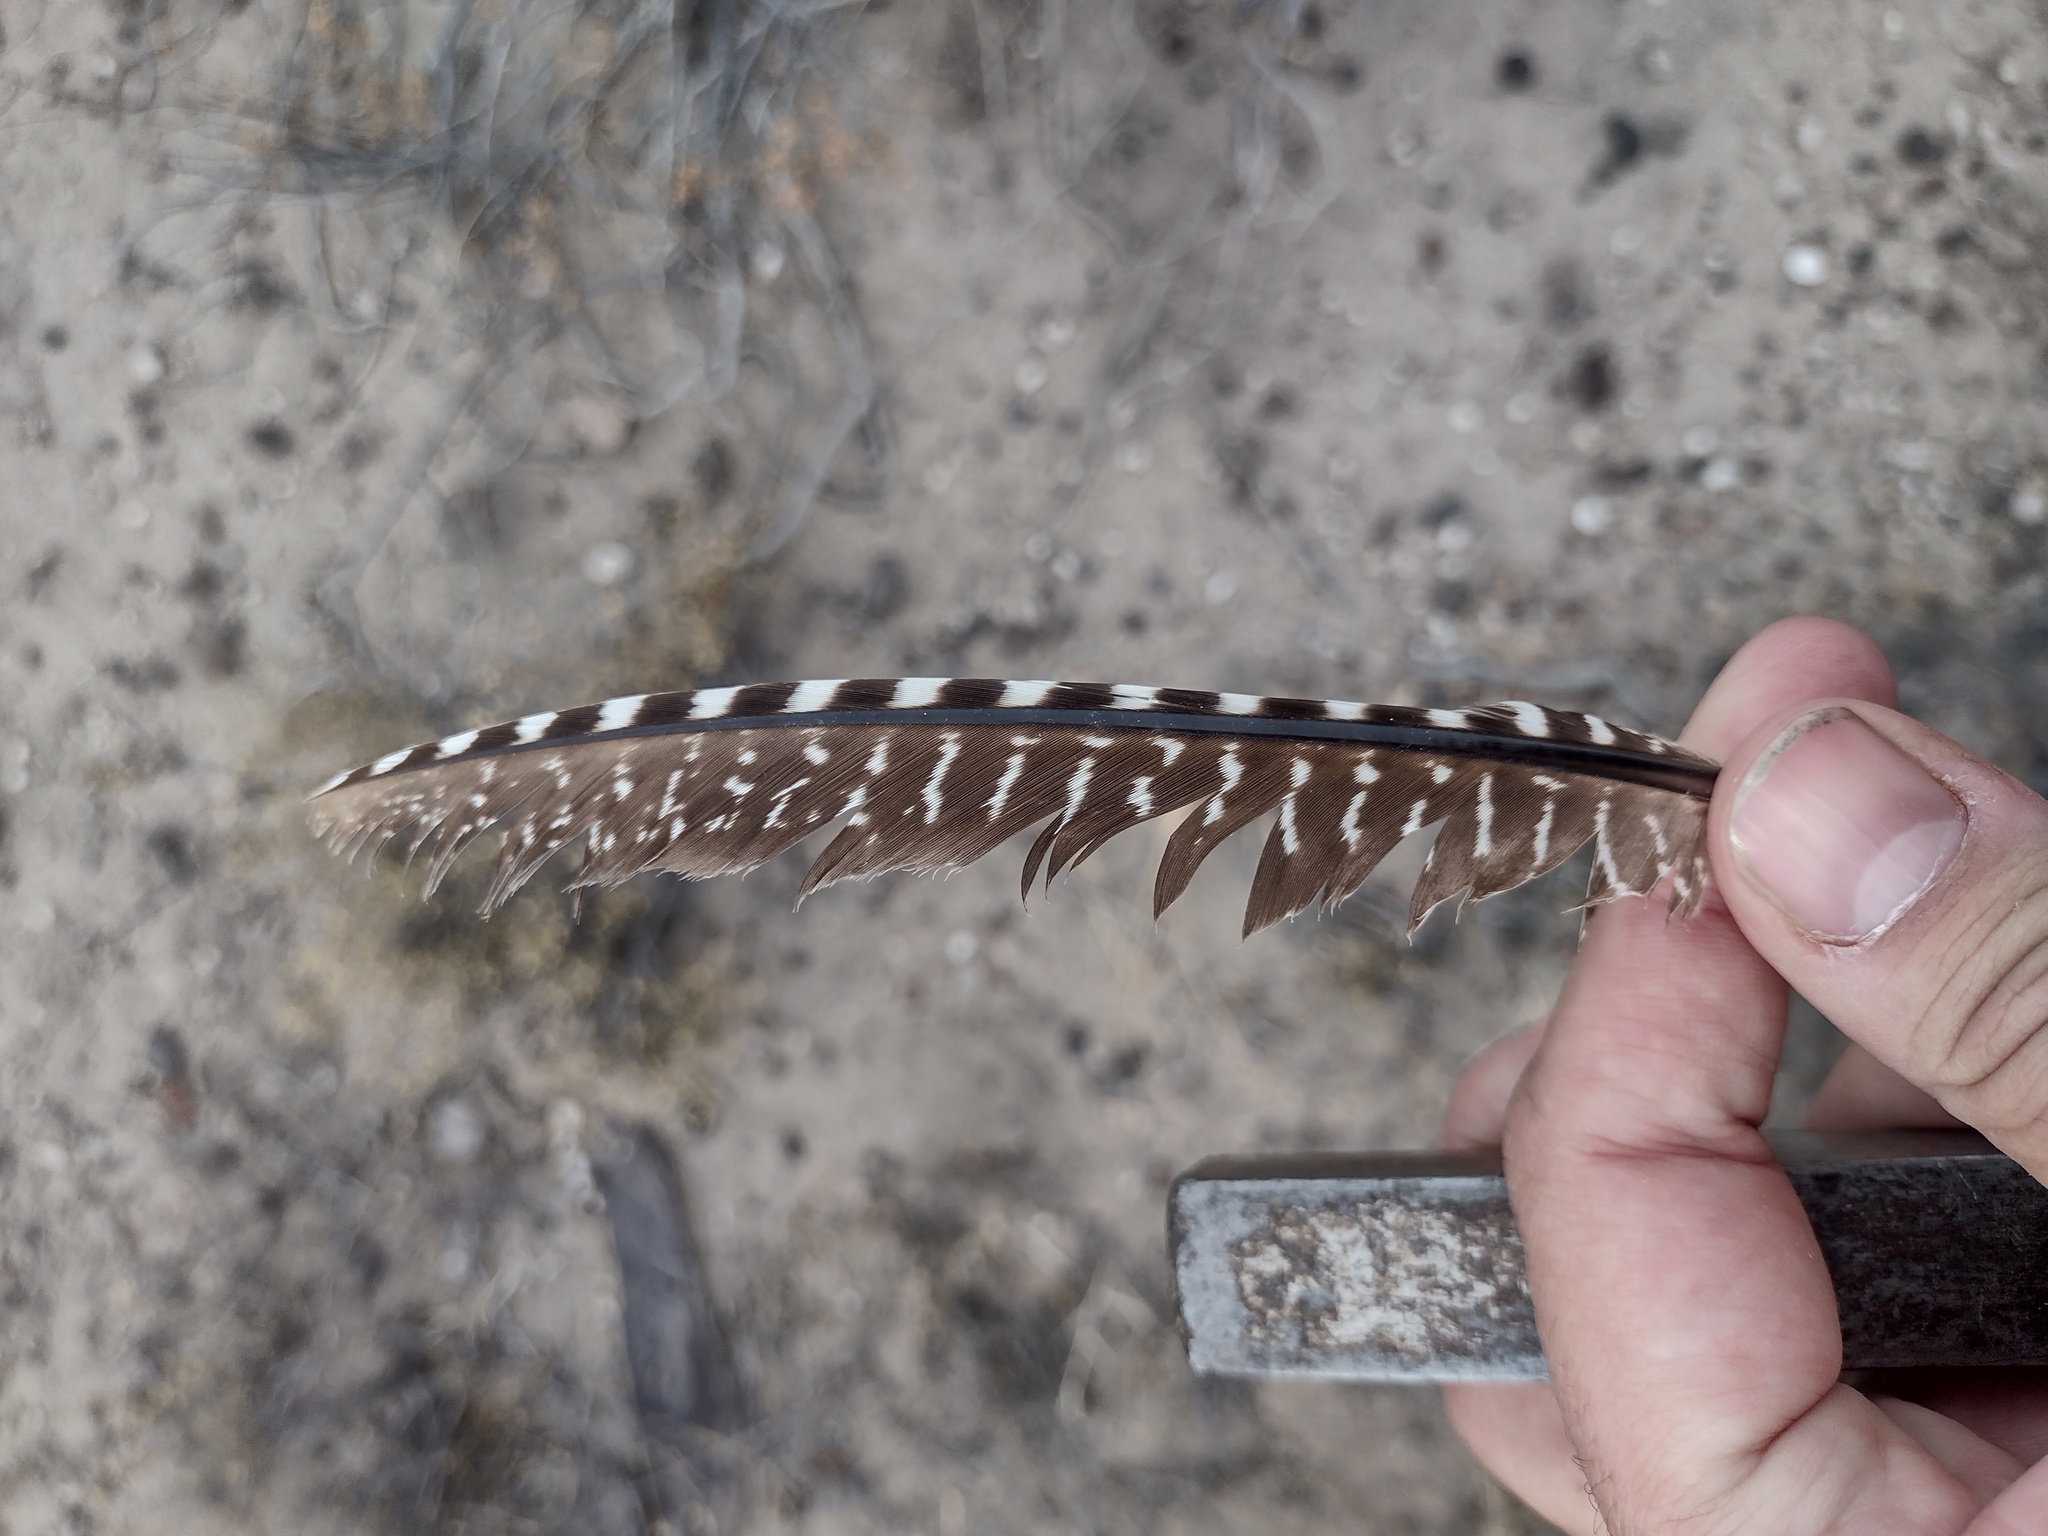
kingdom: Animalia
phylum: Chordata
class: Aves
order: Tinamiformes
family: Tinamidae
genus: Eudromia
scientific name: Eudromia elegans
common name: Elegant crested tinamou
